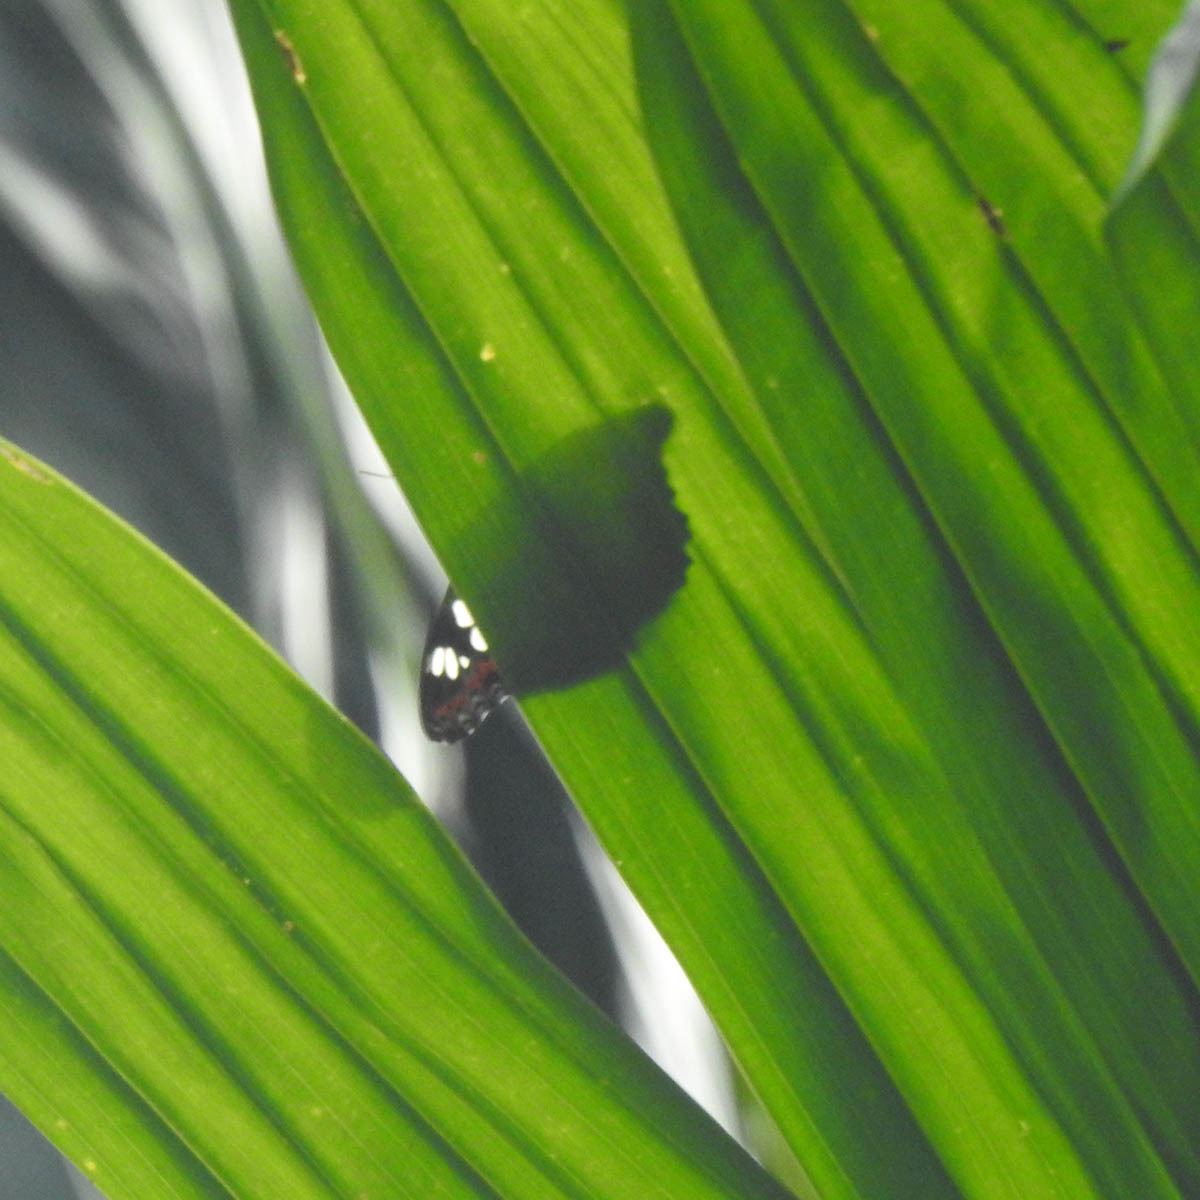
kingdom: Animalia
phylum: Arthropoda
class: Insecta
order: Lepidoptera
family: Nymphalidae
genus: Limenitis
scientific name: Limenitis Moduza procris
